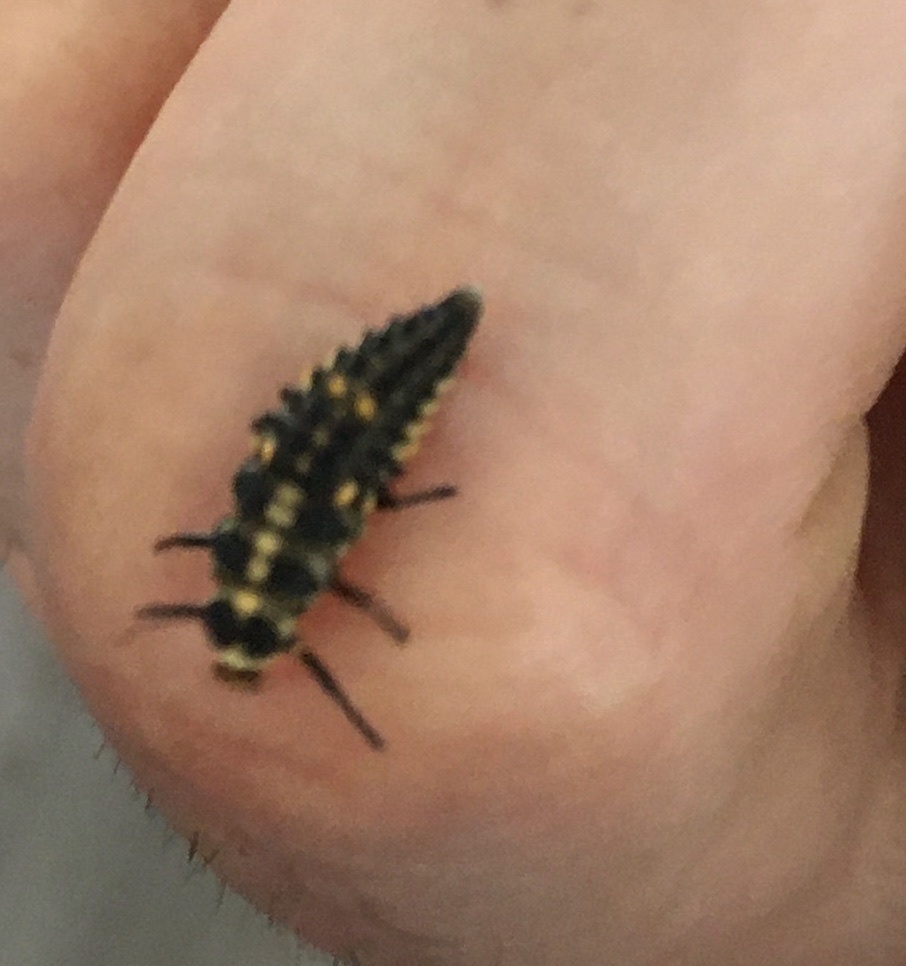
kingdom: Animalia
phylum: Arthropoda
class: Insecta
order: Coleoptera
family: Coccinellidae
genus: Cleobora
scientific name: Cleobora
